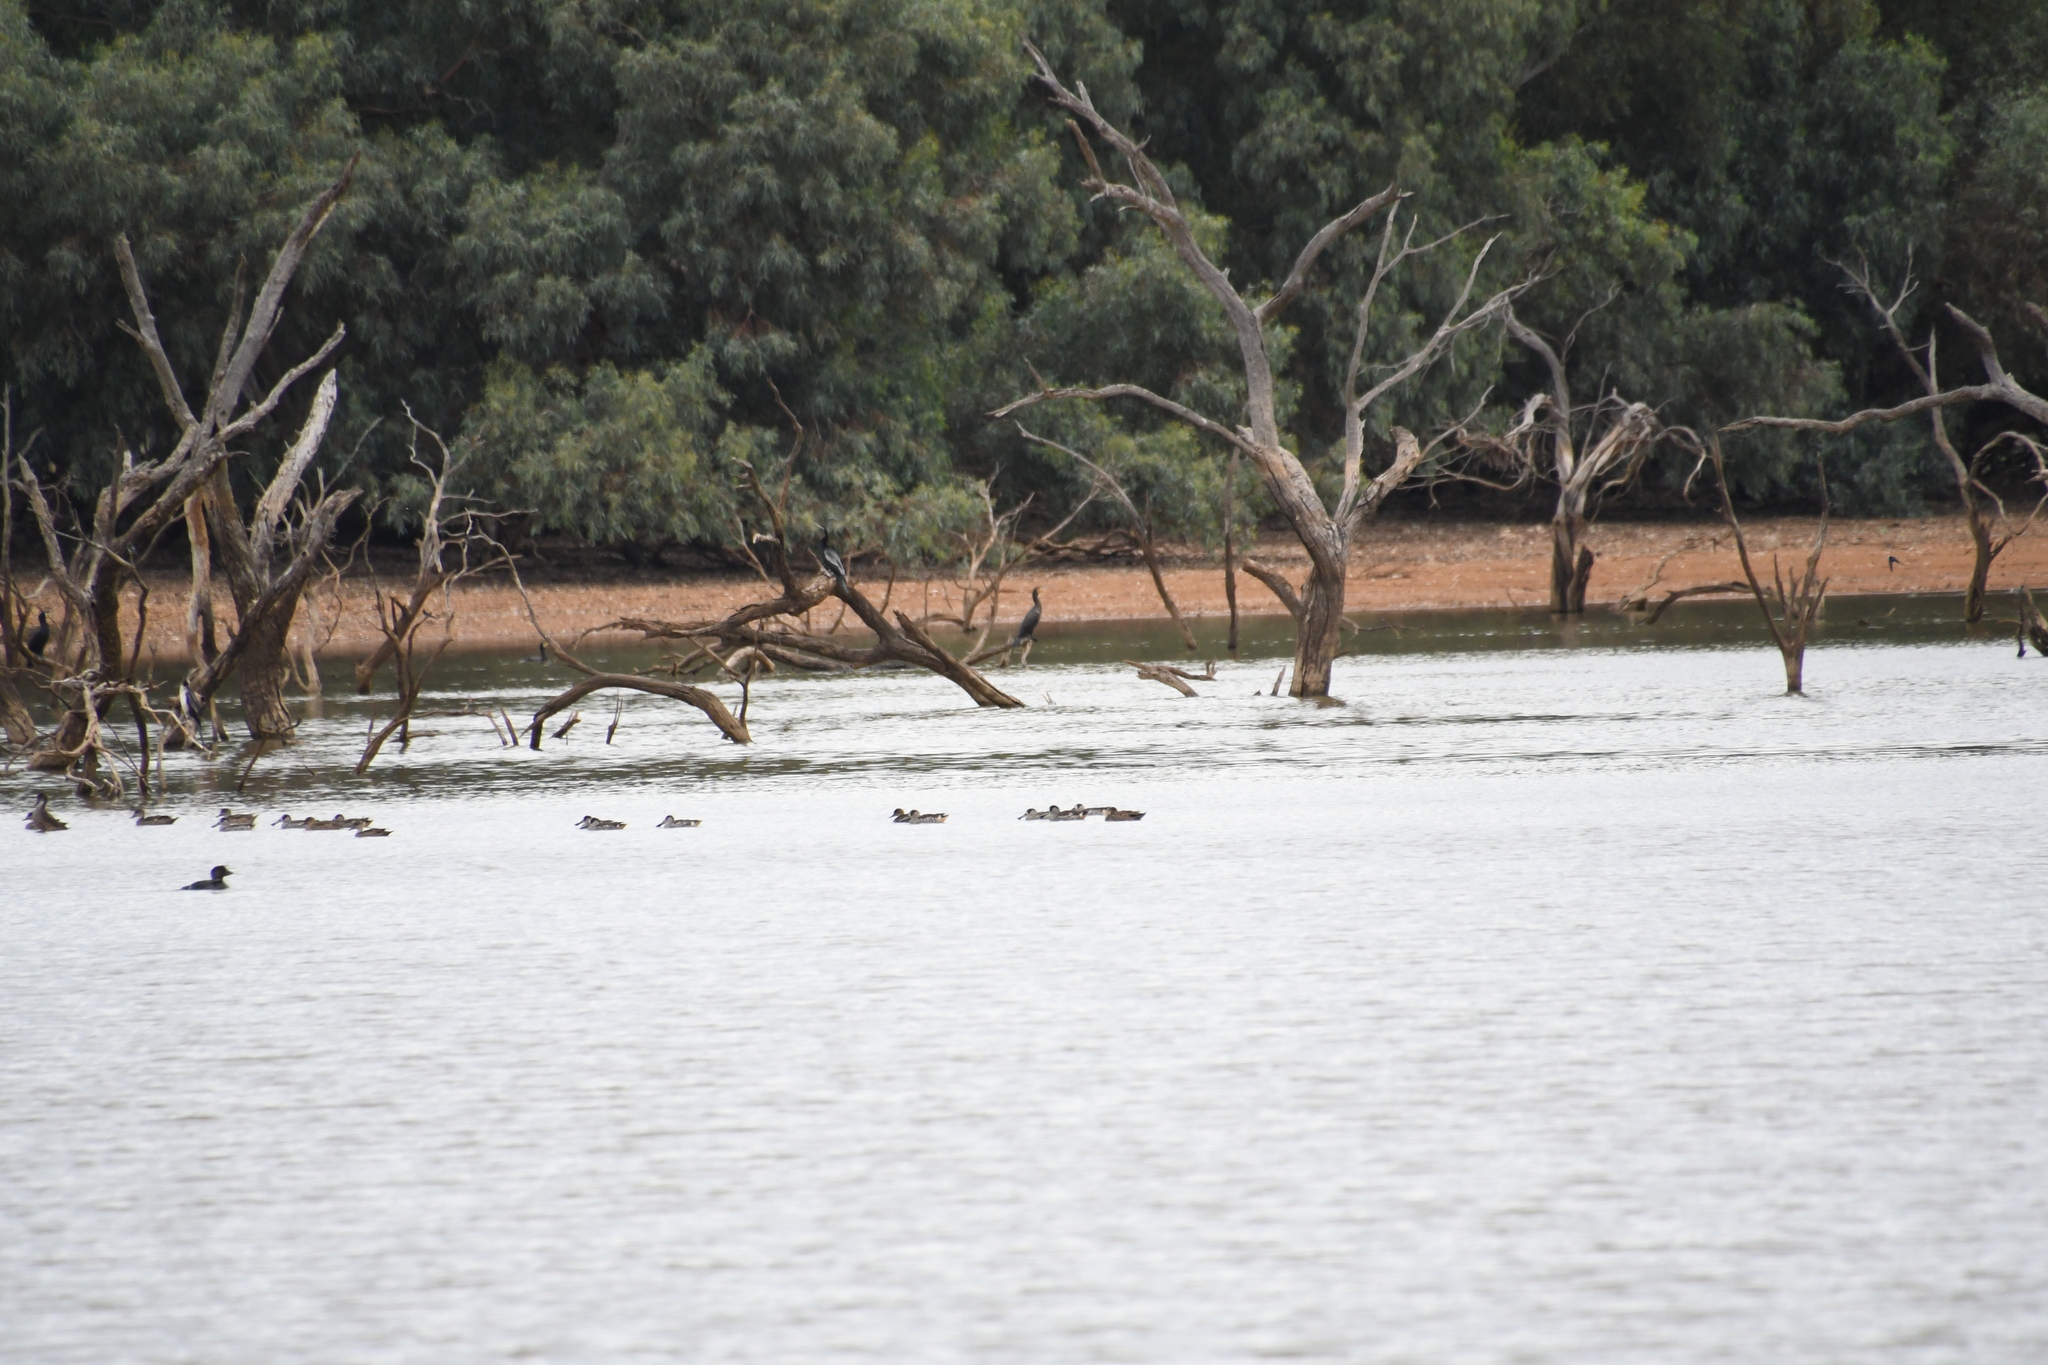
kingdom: Animalia
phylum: Chordata
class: Aves
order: Anseriformes
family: Anatidae
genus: Malacorhynchus
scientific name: Malacorhynchus membranaceus
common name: Pink-eared duck
